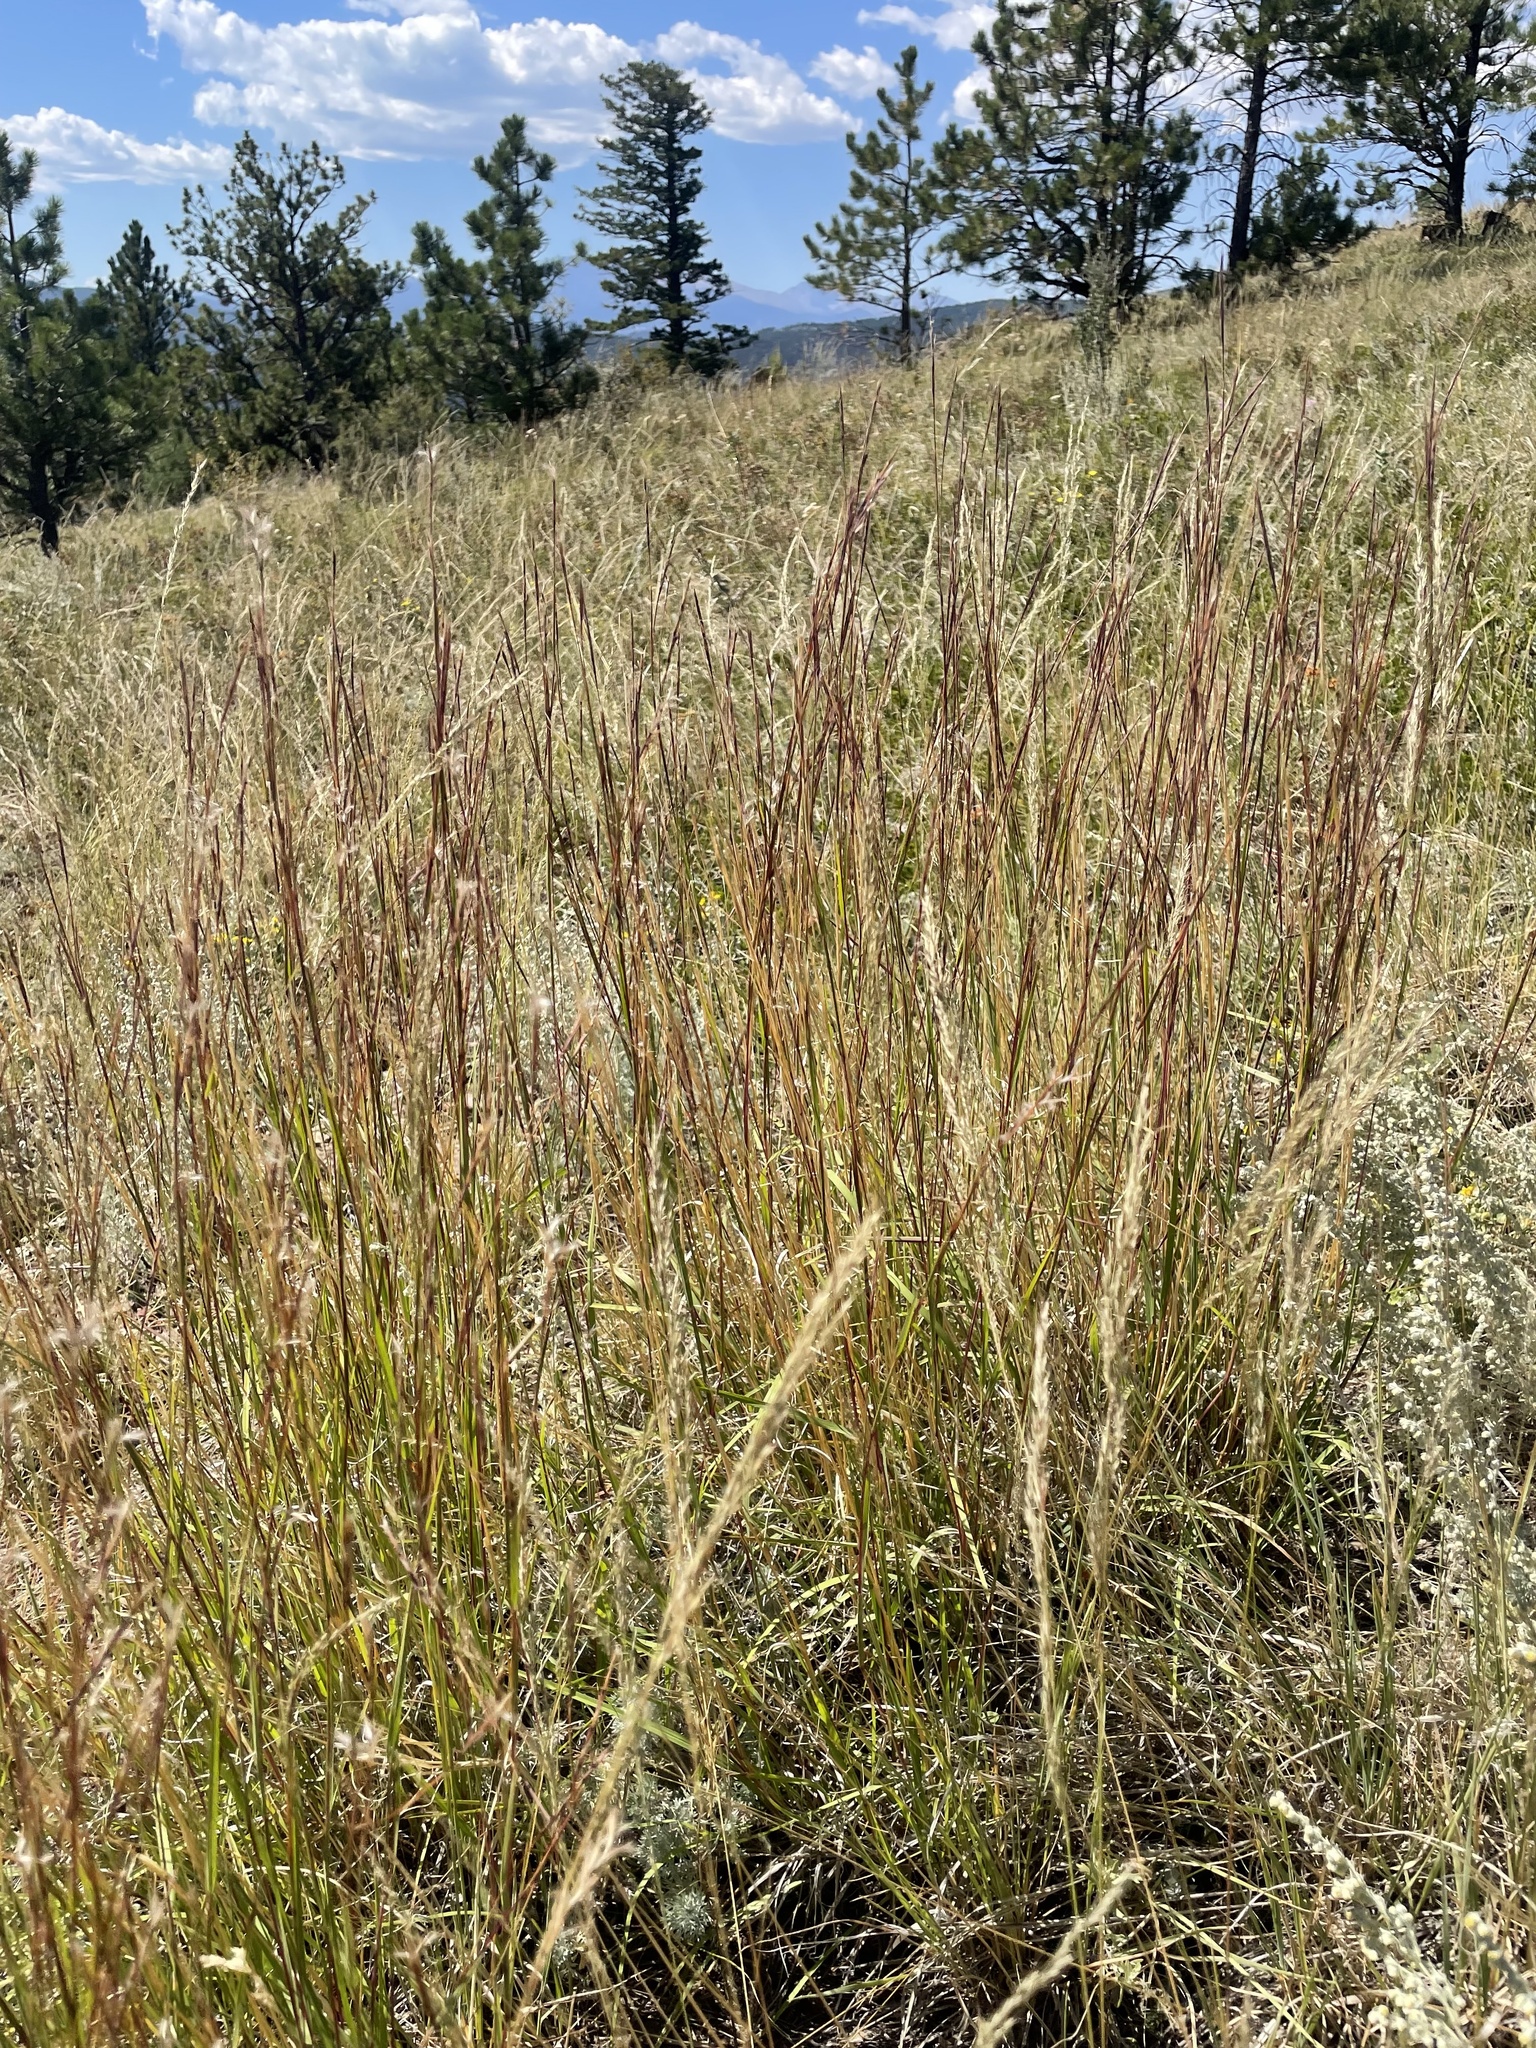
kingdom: Plantae
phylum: Tracheophyta
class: Liliopsida
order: Poales
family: Poaceae
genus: Schizachyrium
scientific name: Schizachyrium scoparium
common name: Little bluestem
